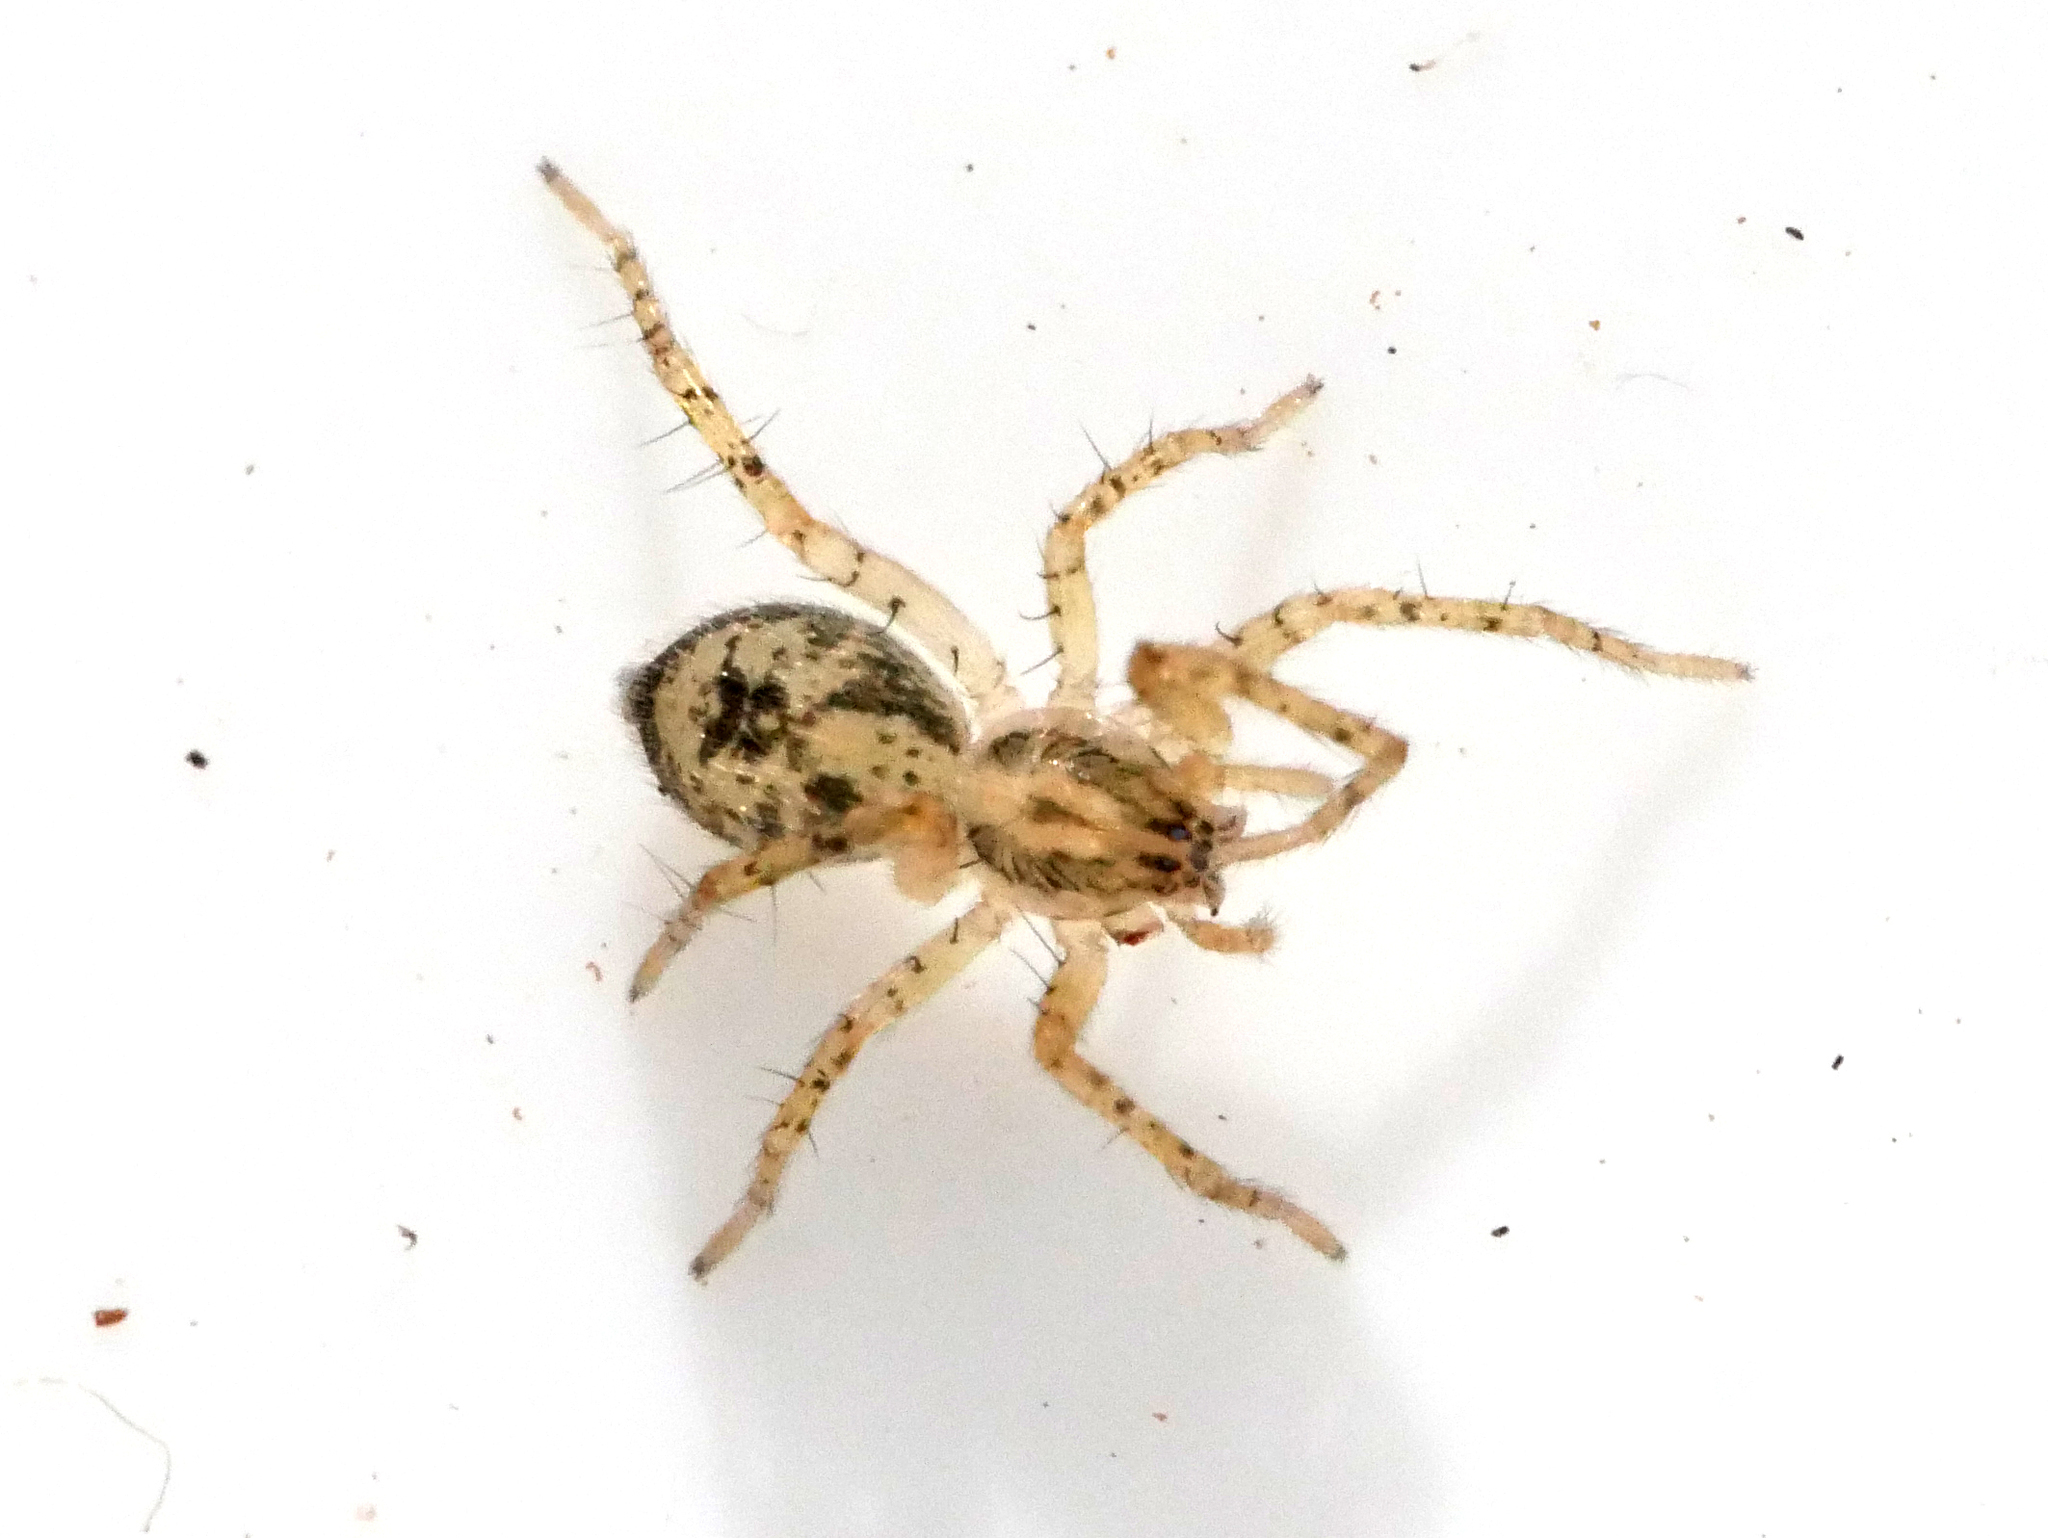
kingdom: Animalia
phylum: Arthropoda
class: Arachnida
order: Araneae
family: Anyphaenidae
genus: Anyphaena
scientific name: Anyphaena accentuata
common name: Buzzing spider
